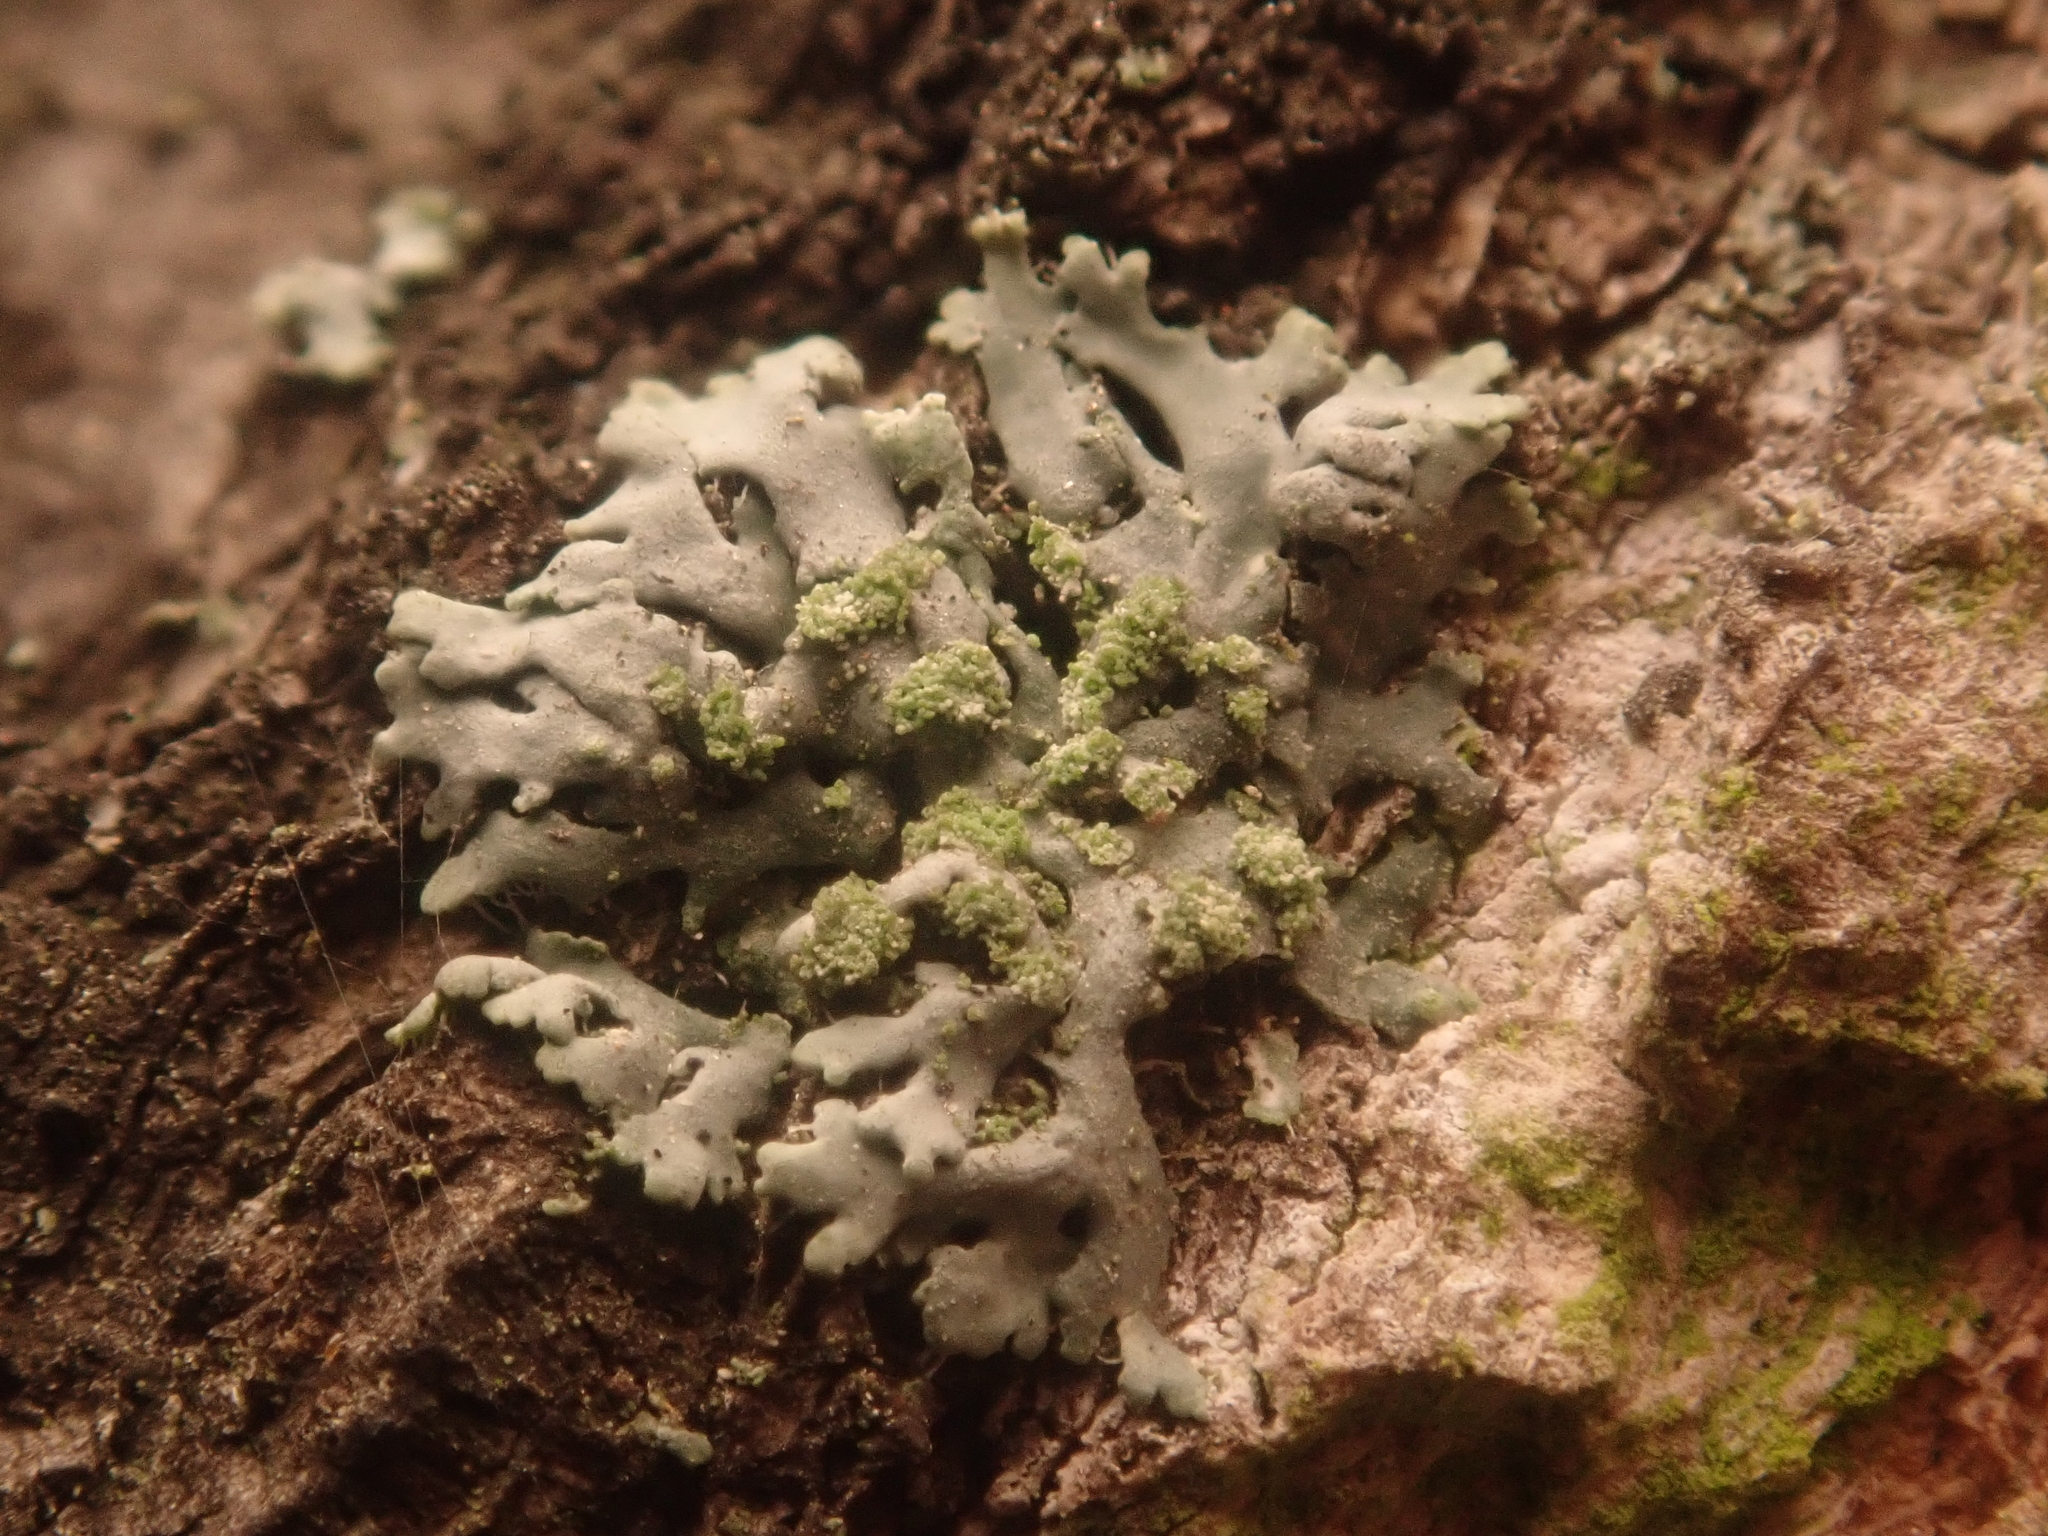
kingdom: Fungi
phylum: Ascomycota
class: Lecanoromycetes
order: Caliciales
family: Physciaceae
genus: Phaeophyscia
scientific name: Phaeophyscia orbicularis
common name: Mealy shadow lichen
